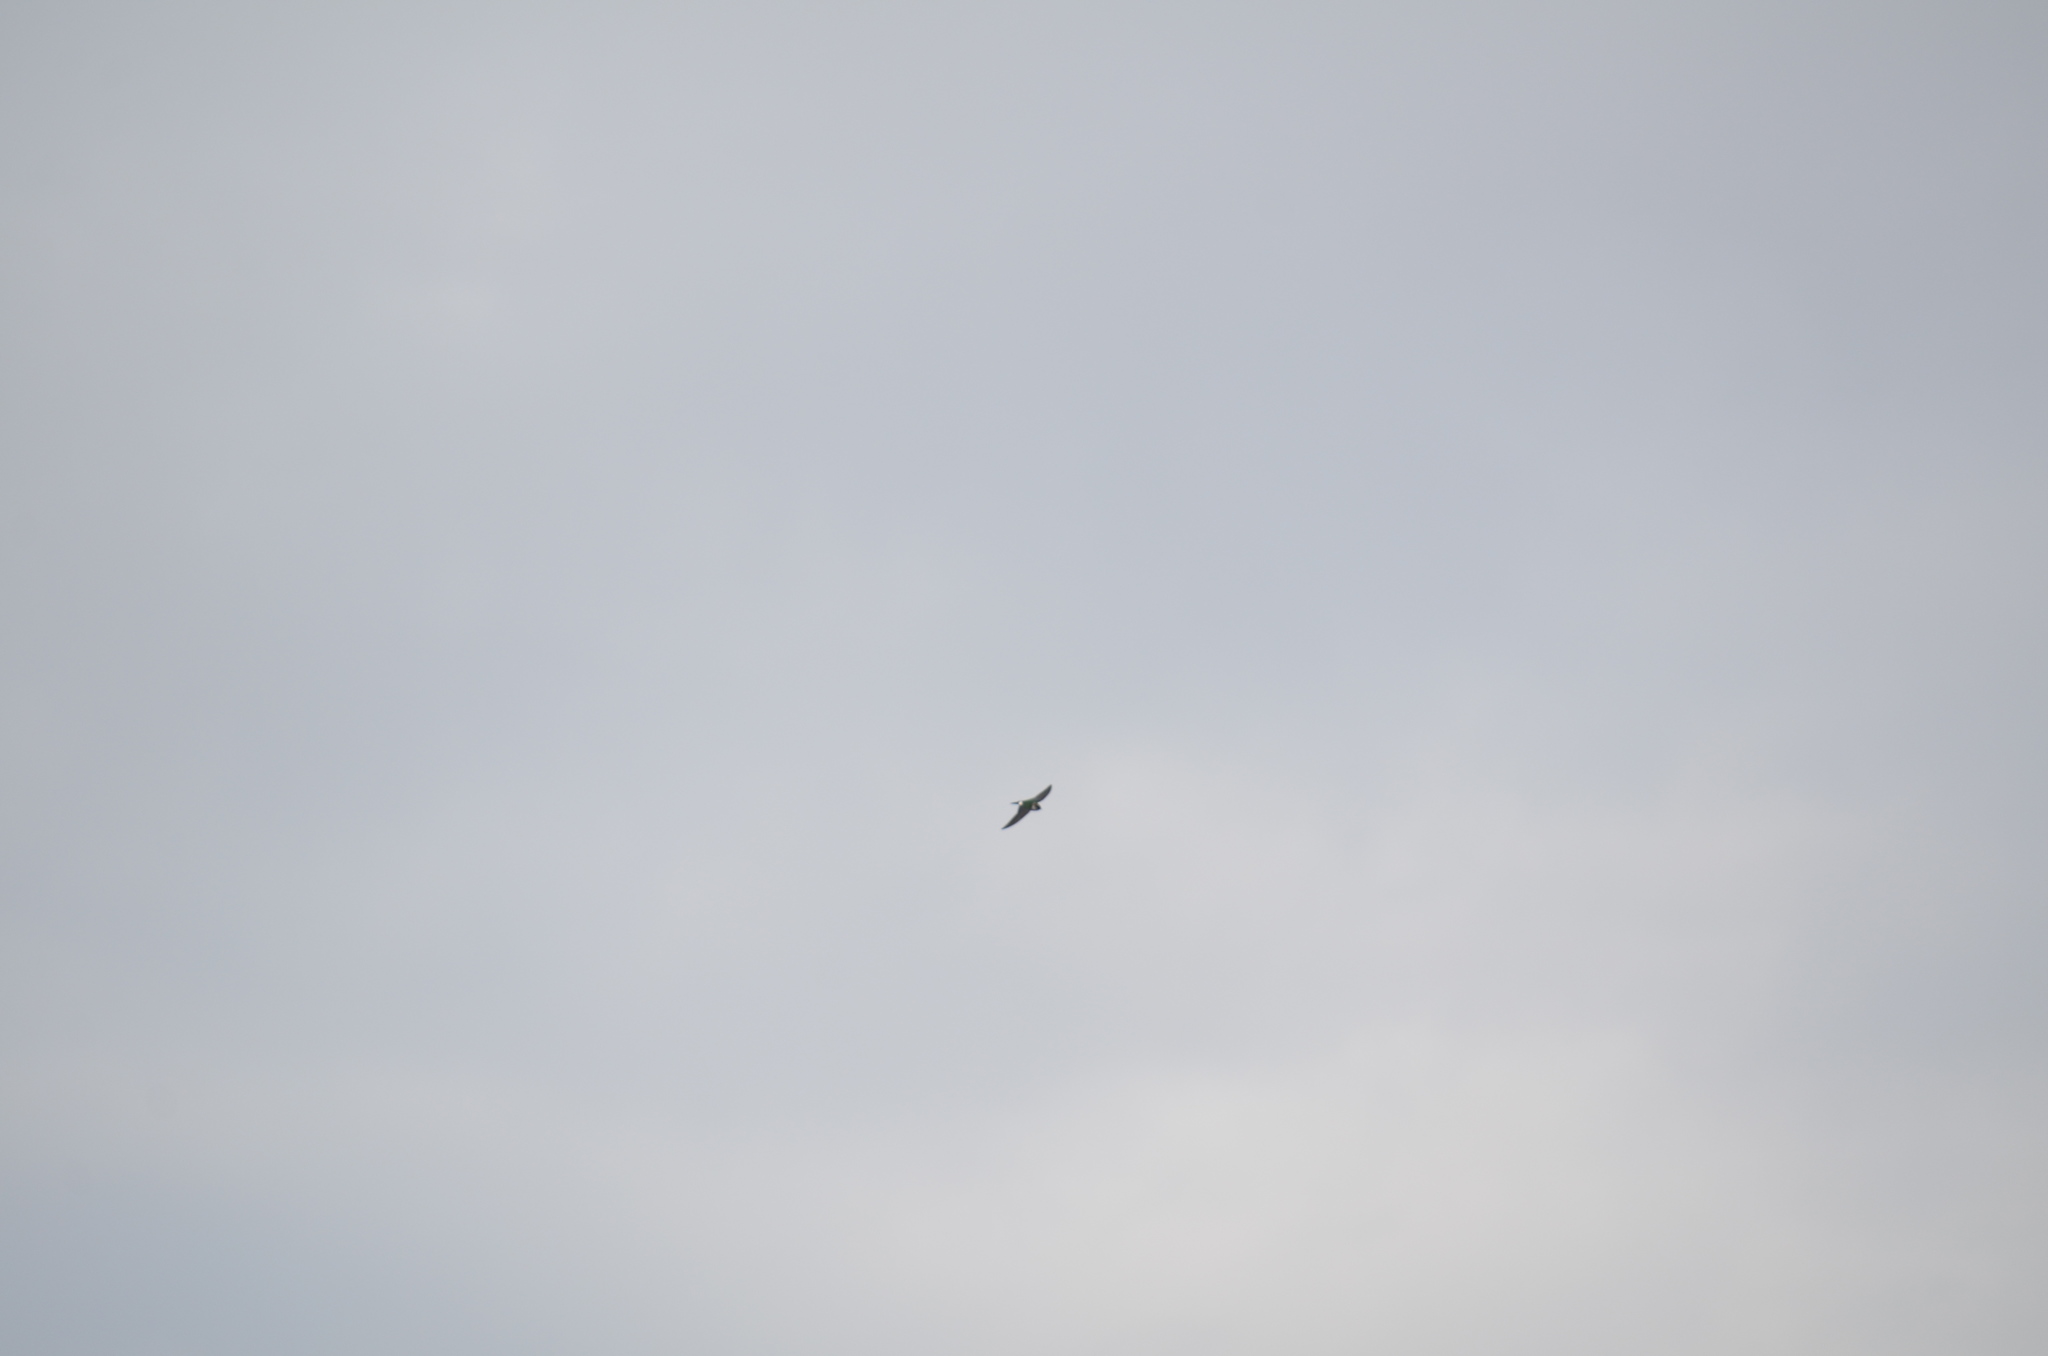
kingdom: Animalia
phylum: Chordata
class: Aves
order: Passeriformes
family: Hirundinidae
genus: Tachycineta
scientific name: Tachycineta thalassina
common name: Violet-green swallow
